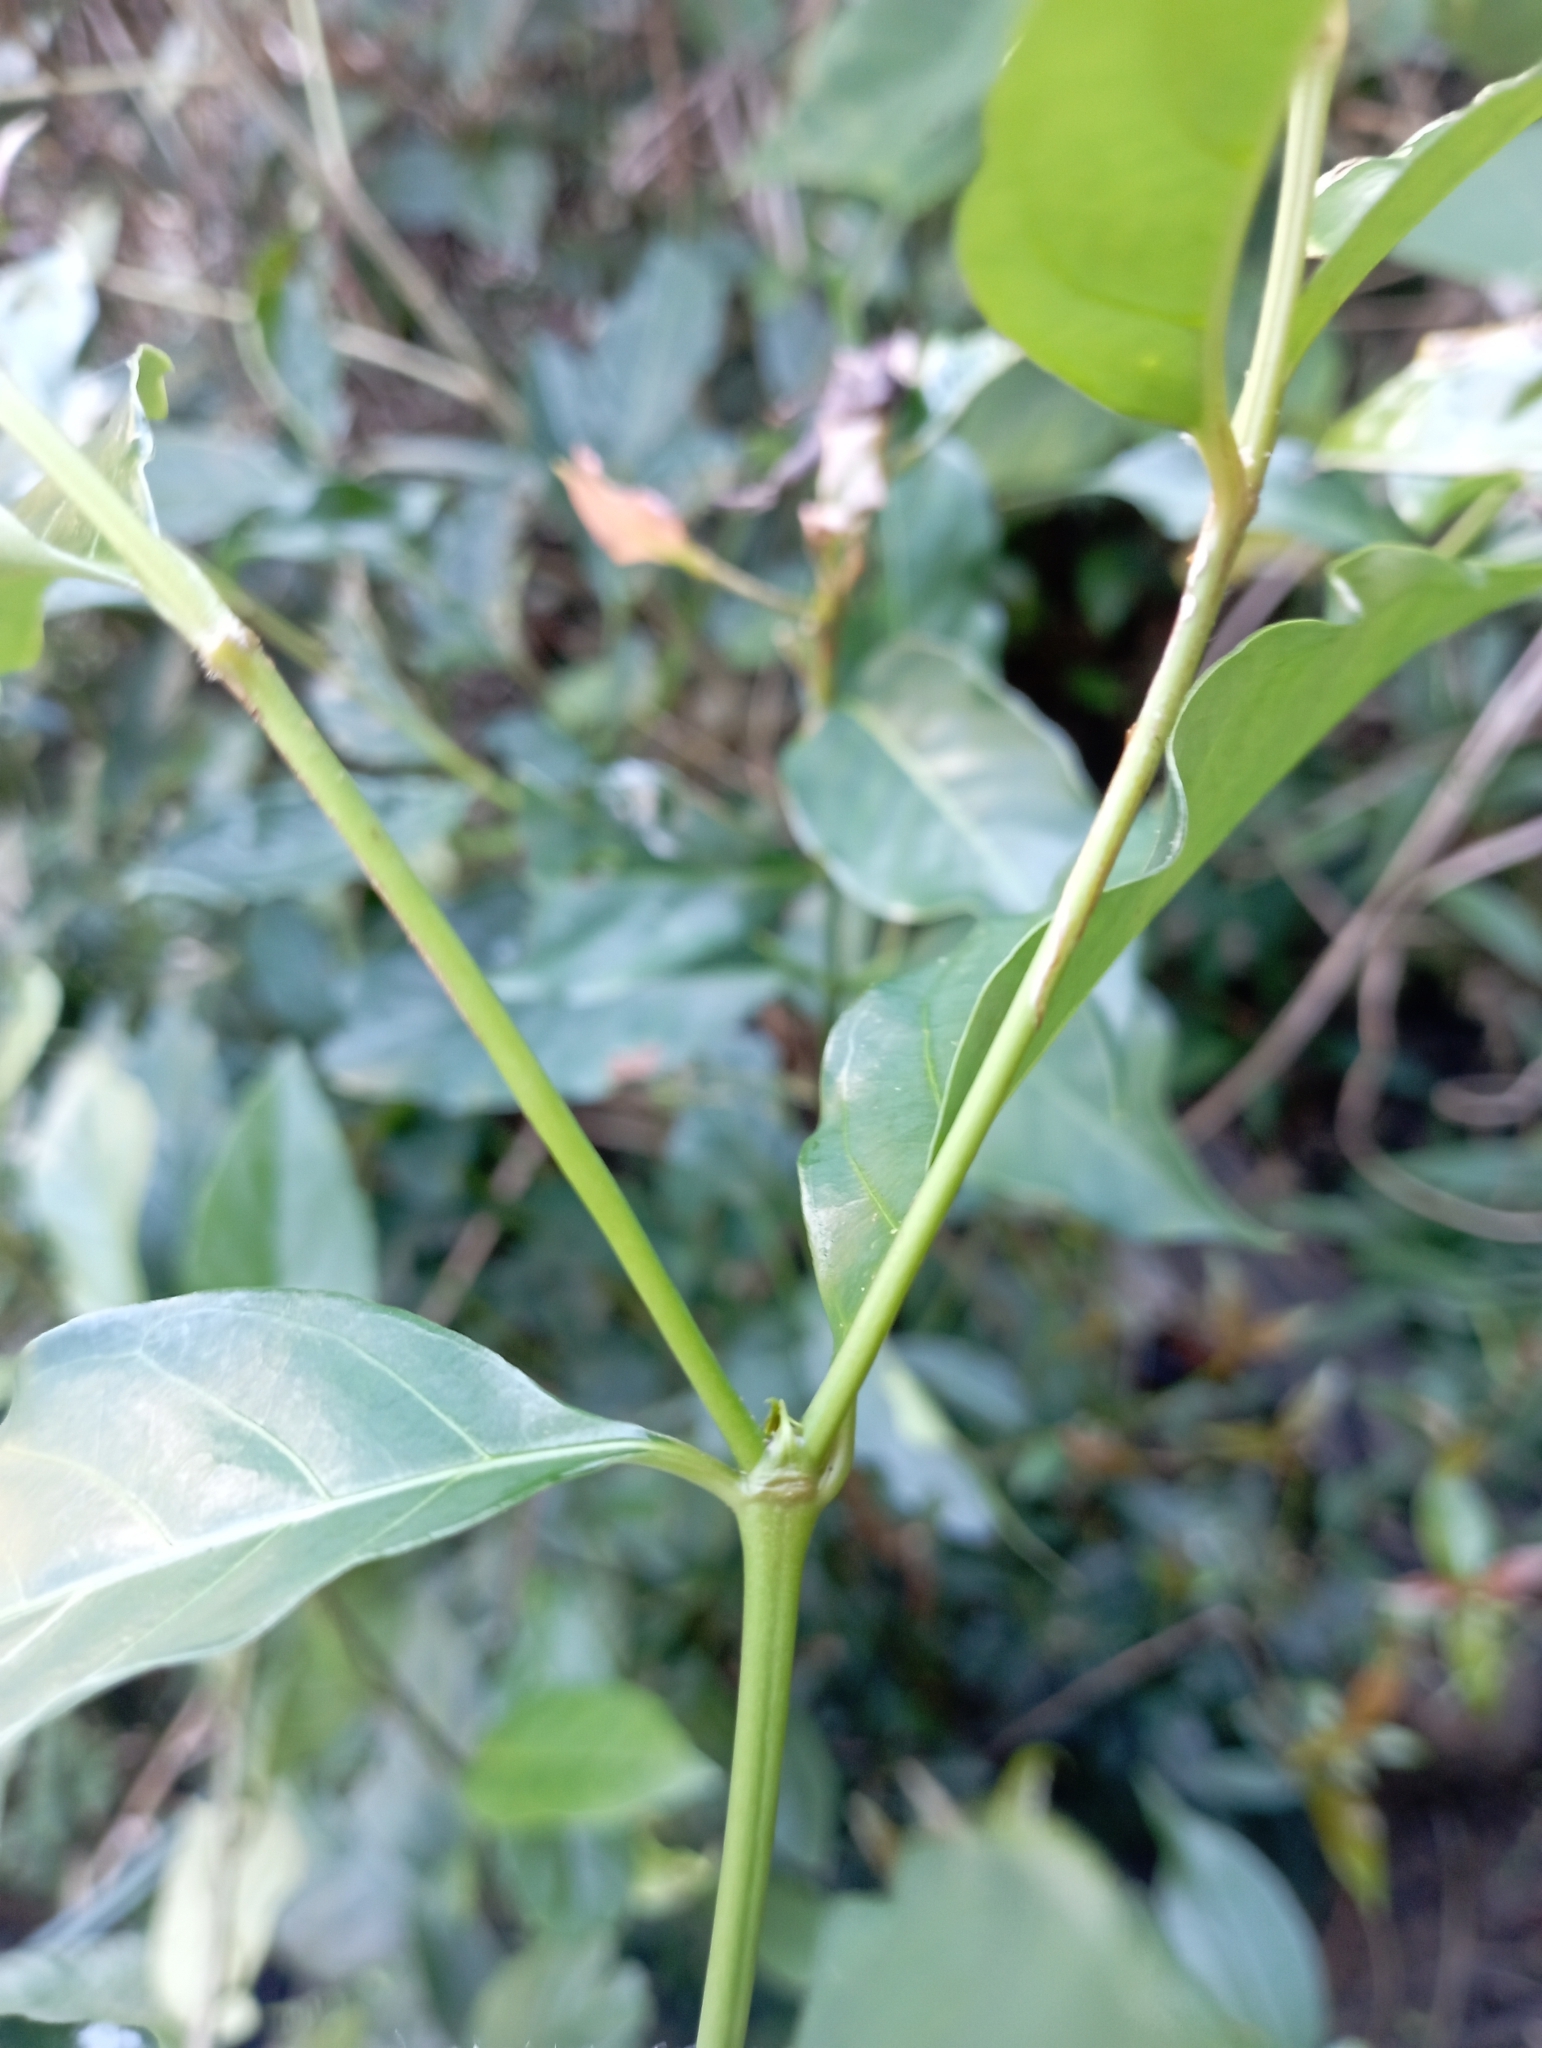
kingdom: Plantae
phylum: Tracheophyta
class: Magnoliopsida
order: Gentianales
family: Rubiaceae
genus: Aidia
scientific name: Aidia cochinchinensis
